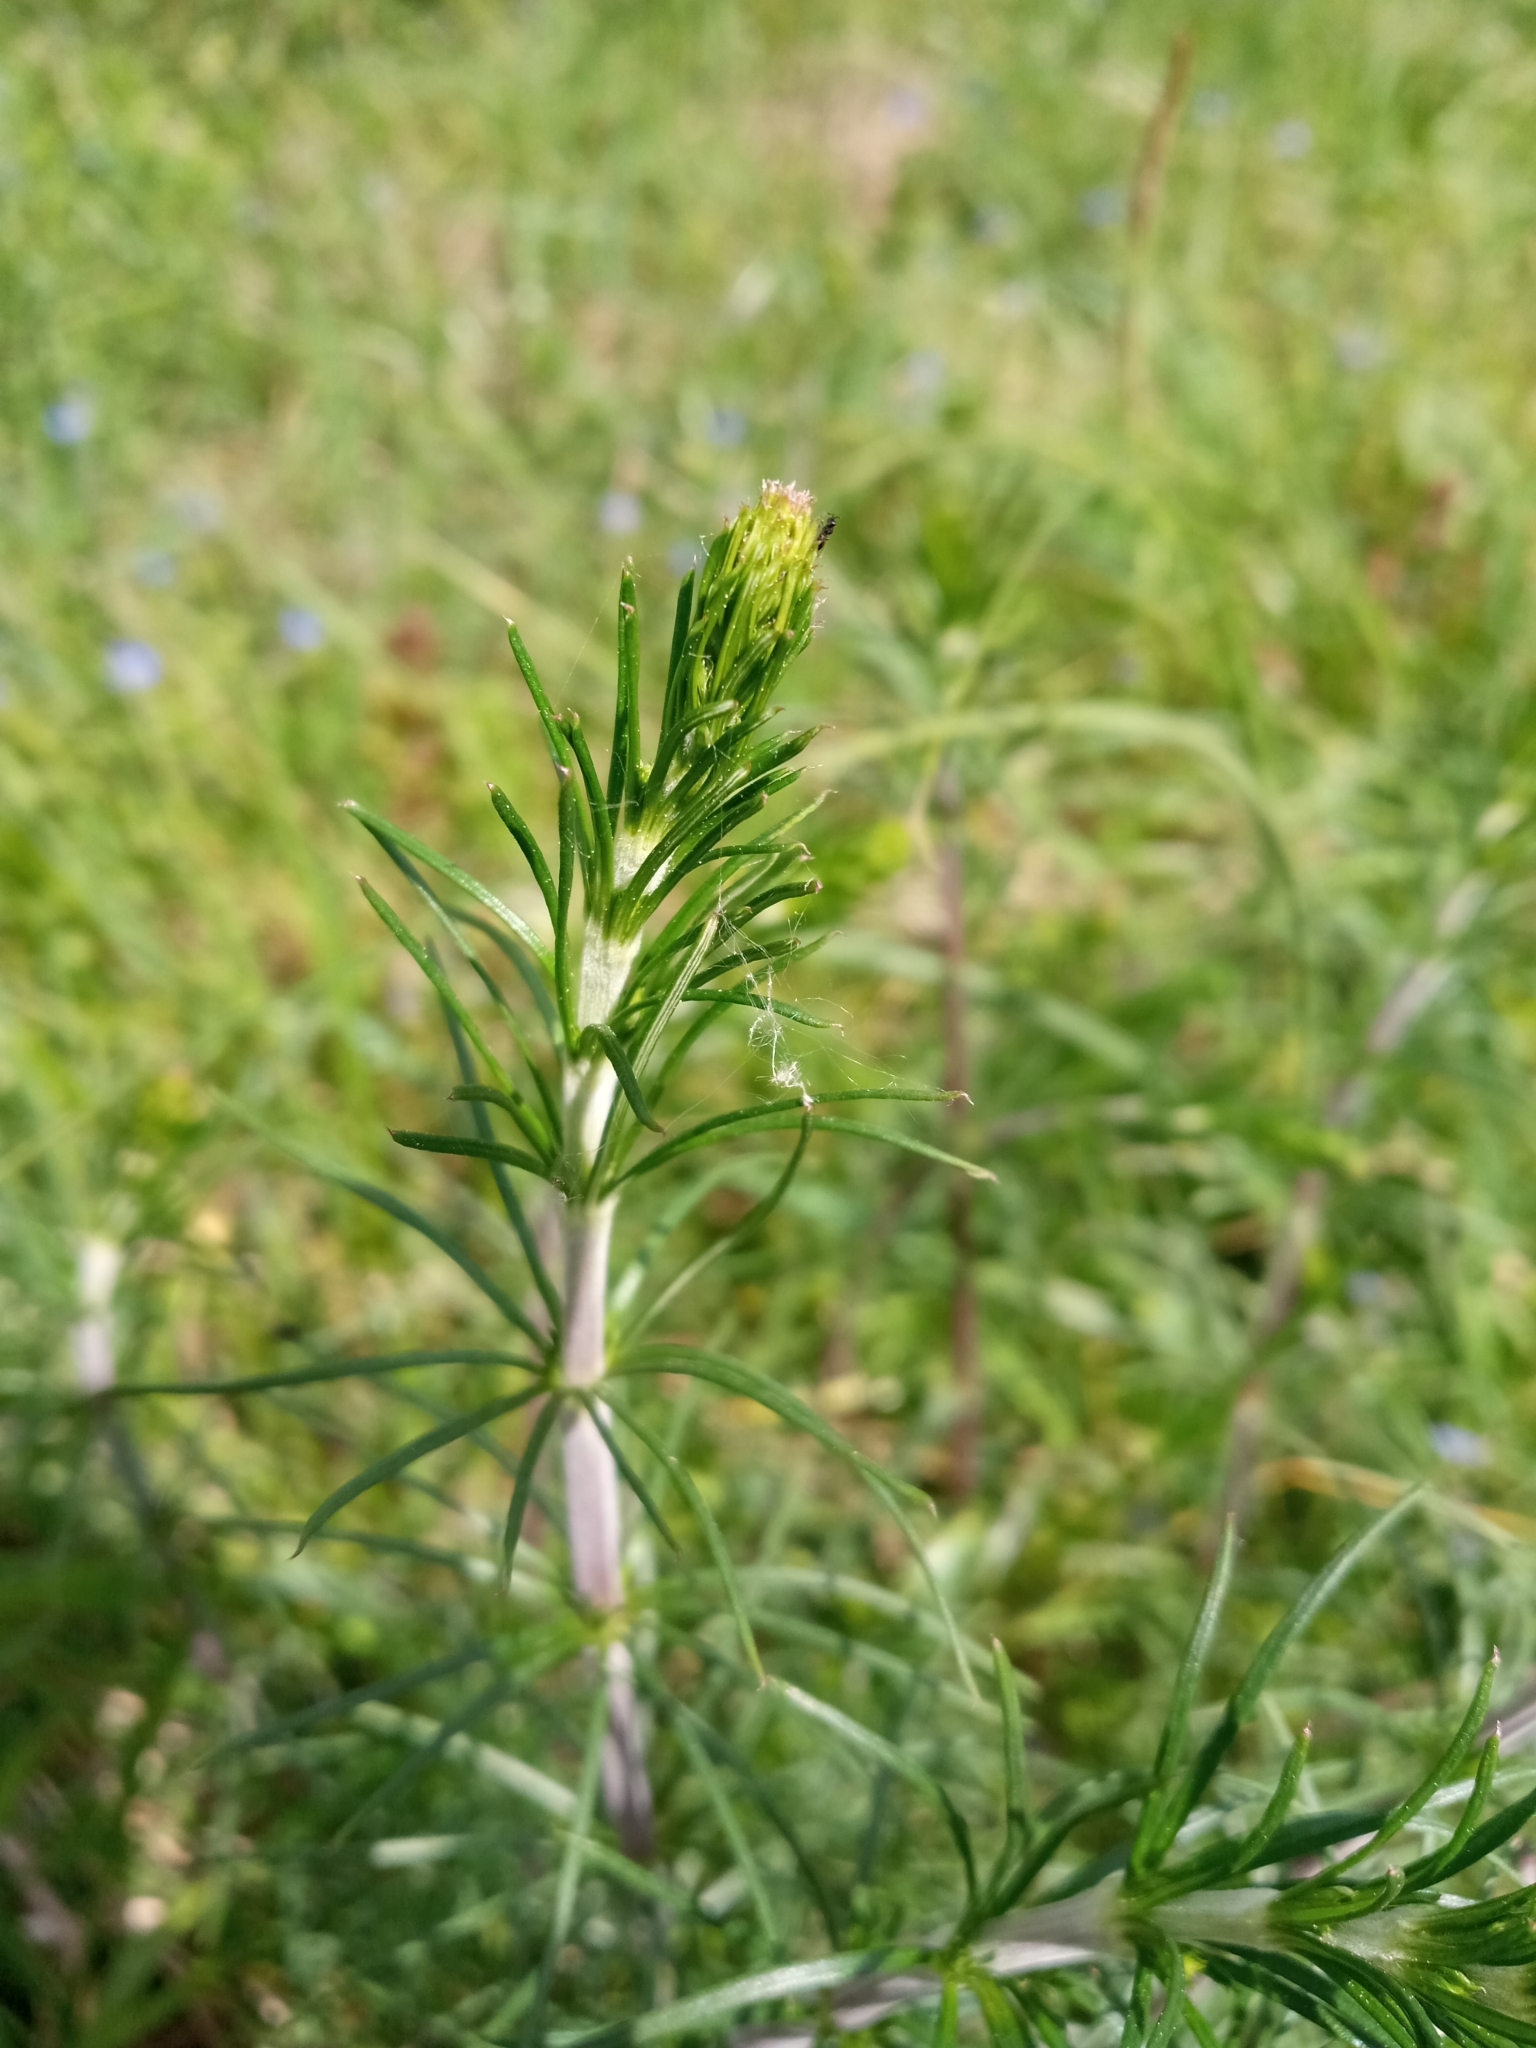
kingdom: Plantae
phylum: Tracheophyta
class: Magnoliopsida
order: Gentianales
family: Rubiaceae
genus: Galium
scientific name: Galium verum
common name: Lady's bedstraw
